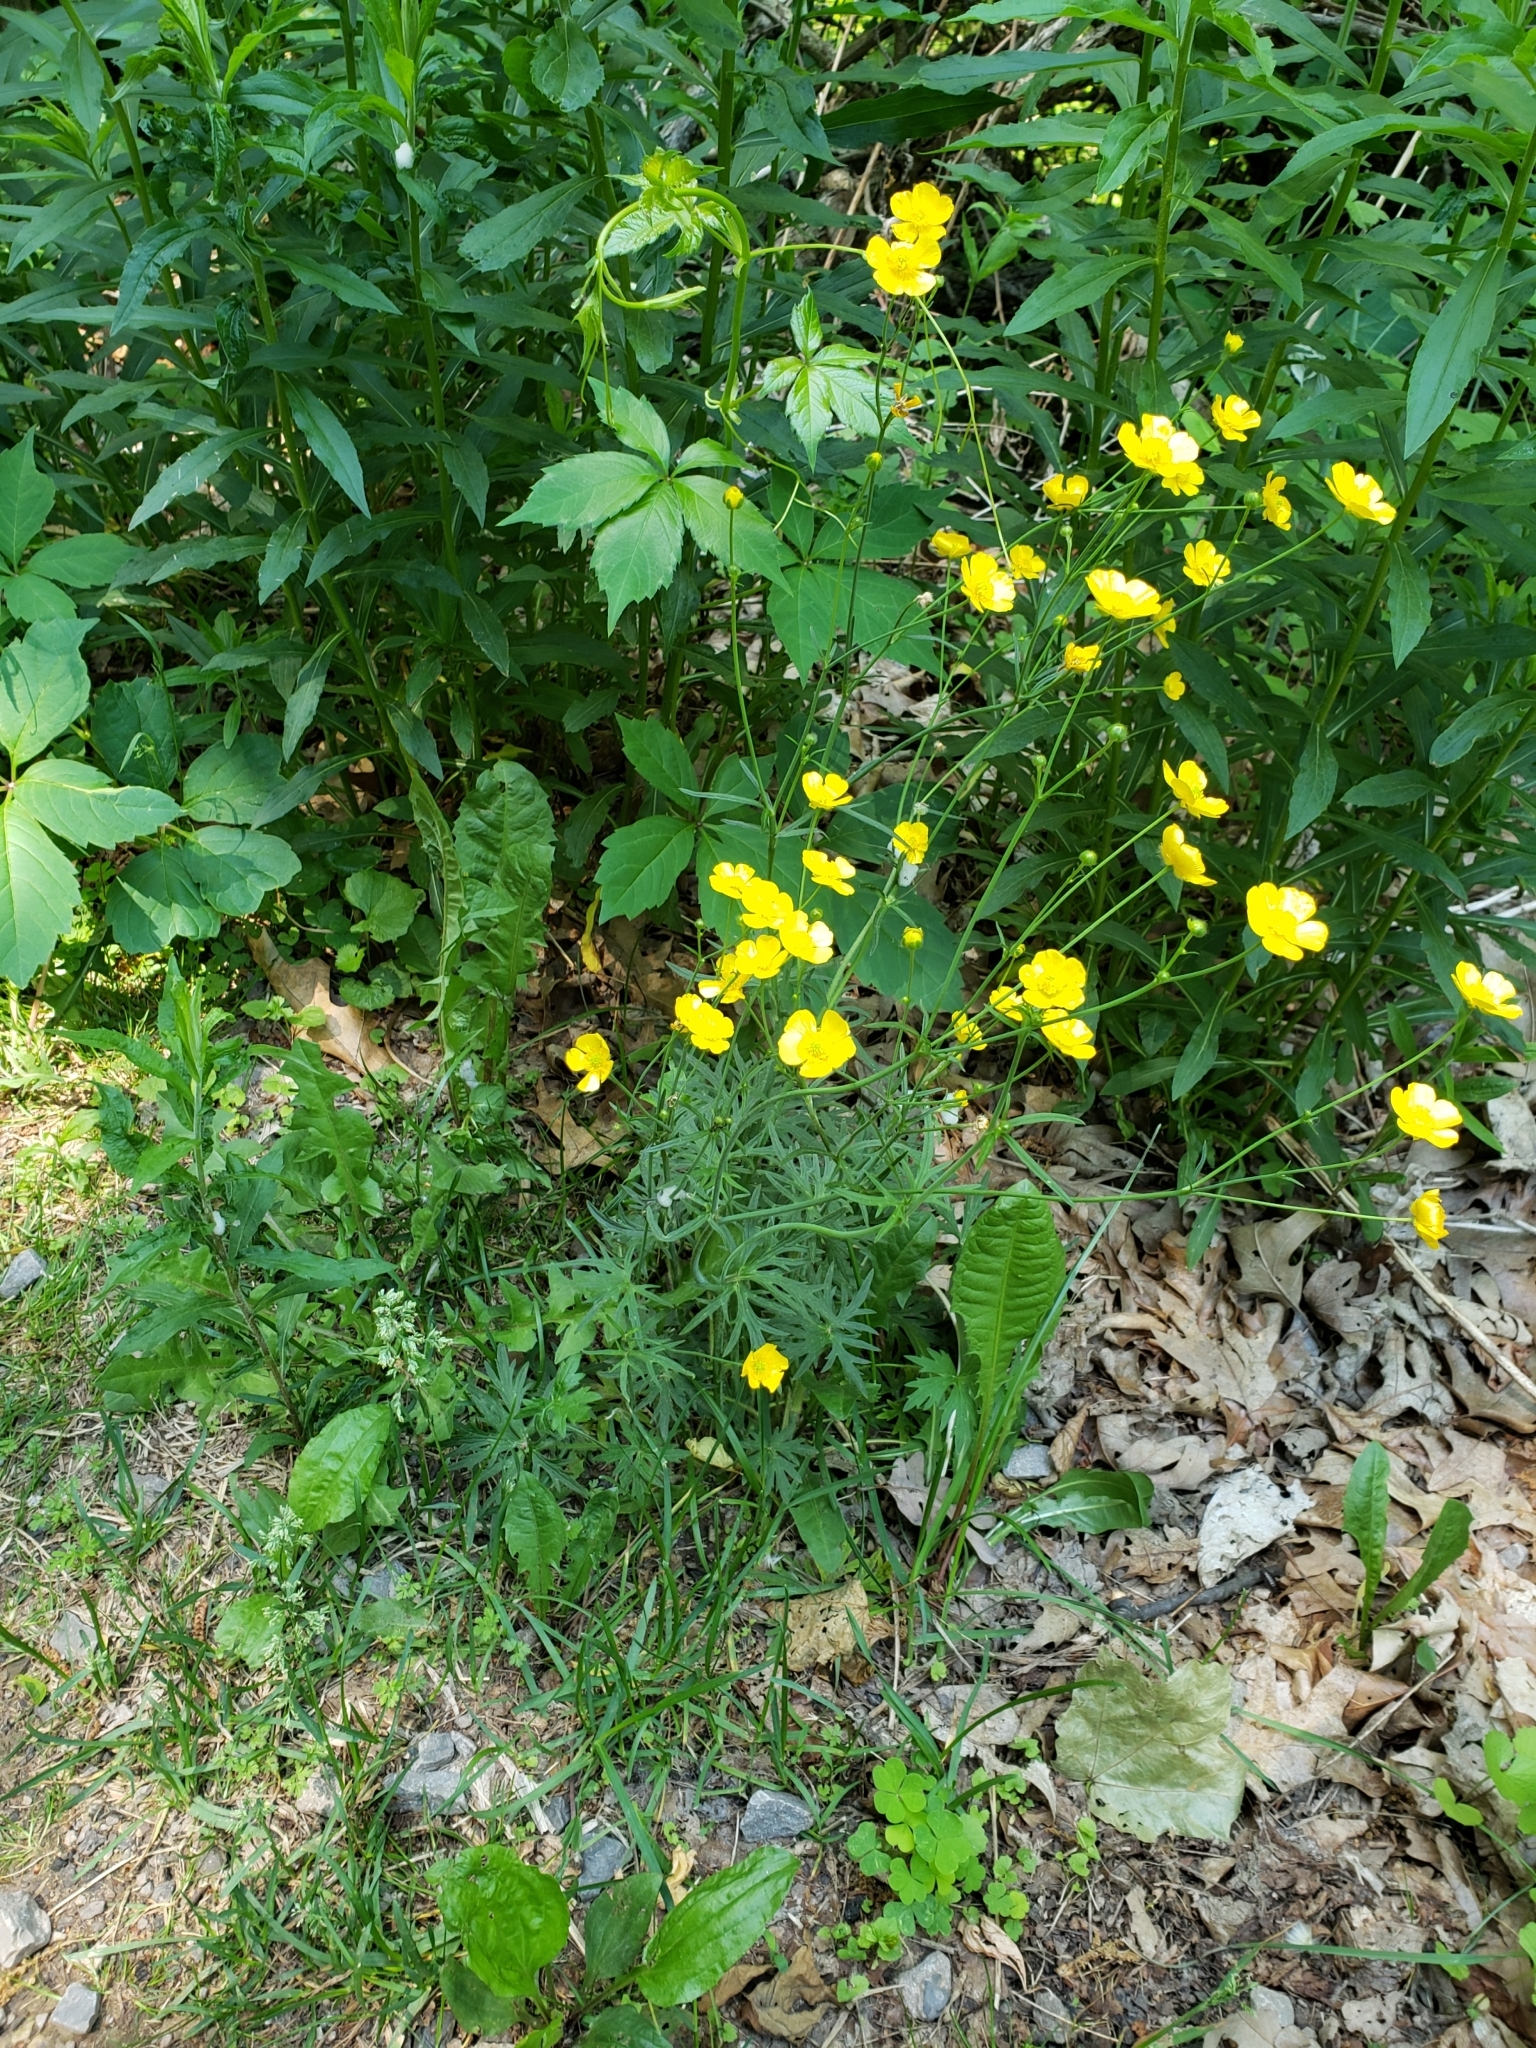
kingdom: Plantae
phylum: Tracheophyta
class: Magnoliopsida
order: Ranunculales
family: Ranunculaceae
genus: Ranunculus
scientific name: Ranunculus acris
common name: Meadow buttercup
